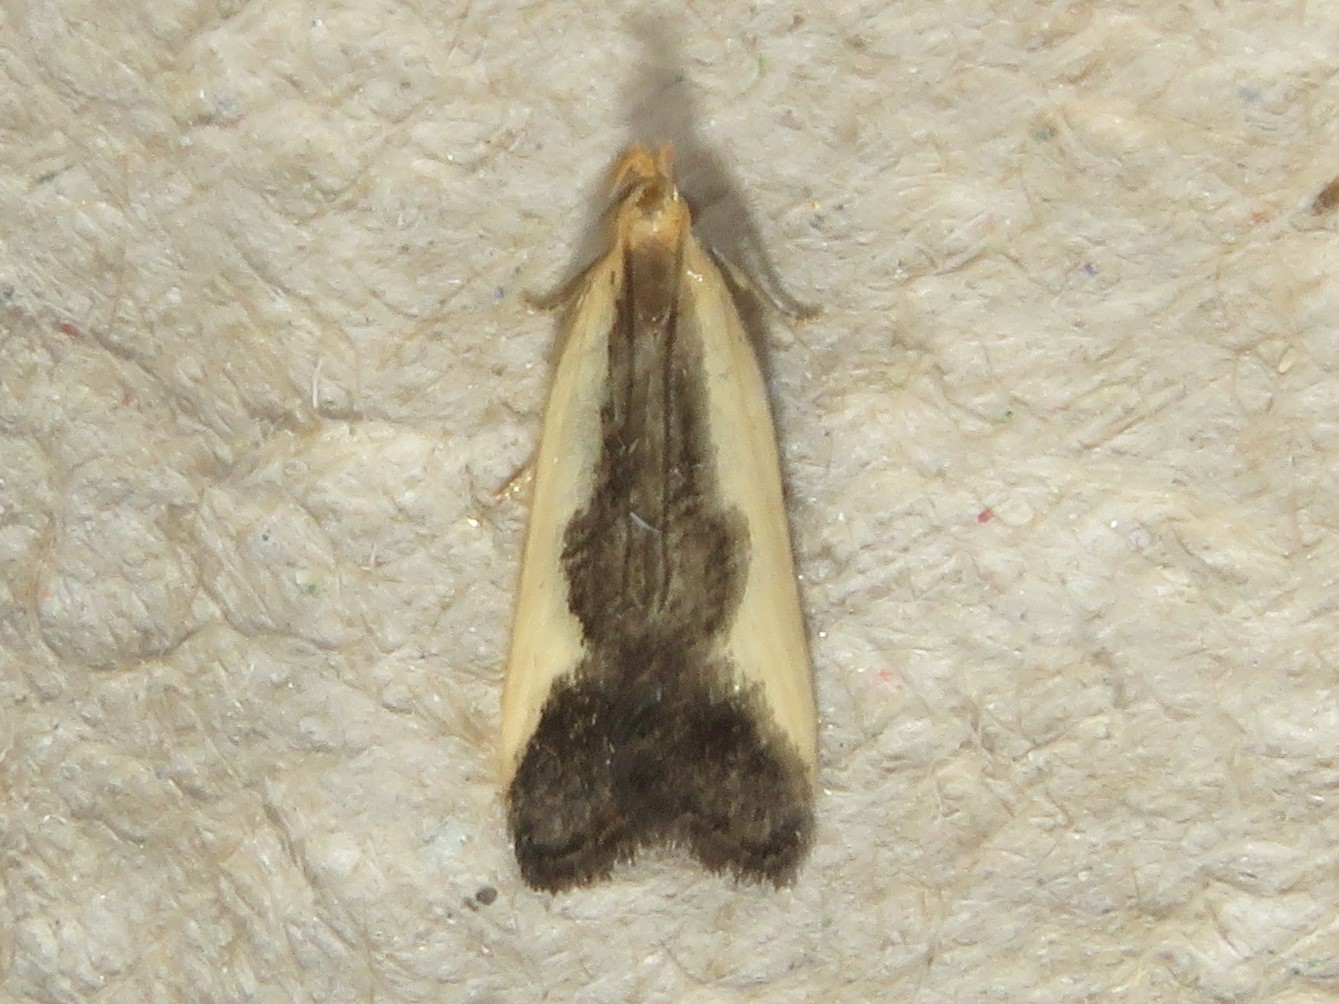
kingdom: Animalia
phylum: Arthropoda
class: Insecta
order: Lepidoptera
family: Gelechiidae
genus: Dichomeris
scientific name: Dichomeris inserrata
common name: Indented dichomeris moth
